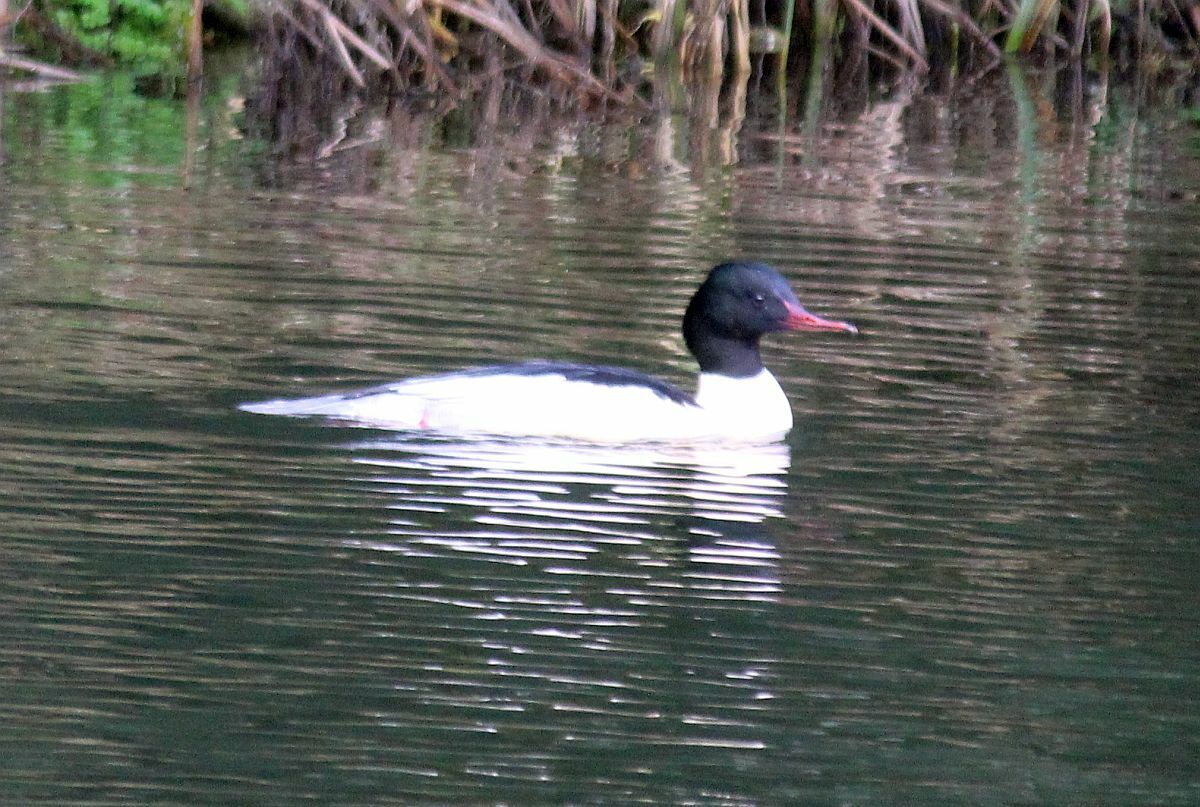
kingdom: Animalia
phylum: Chordata
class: Aves
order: Anseriformes
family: Anatidae
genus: Mergus
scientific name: Mergus merganser
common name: Common merganser
